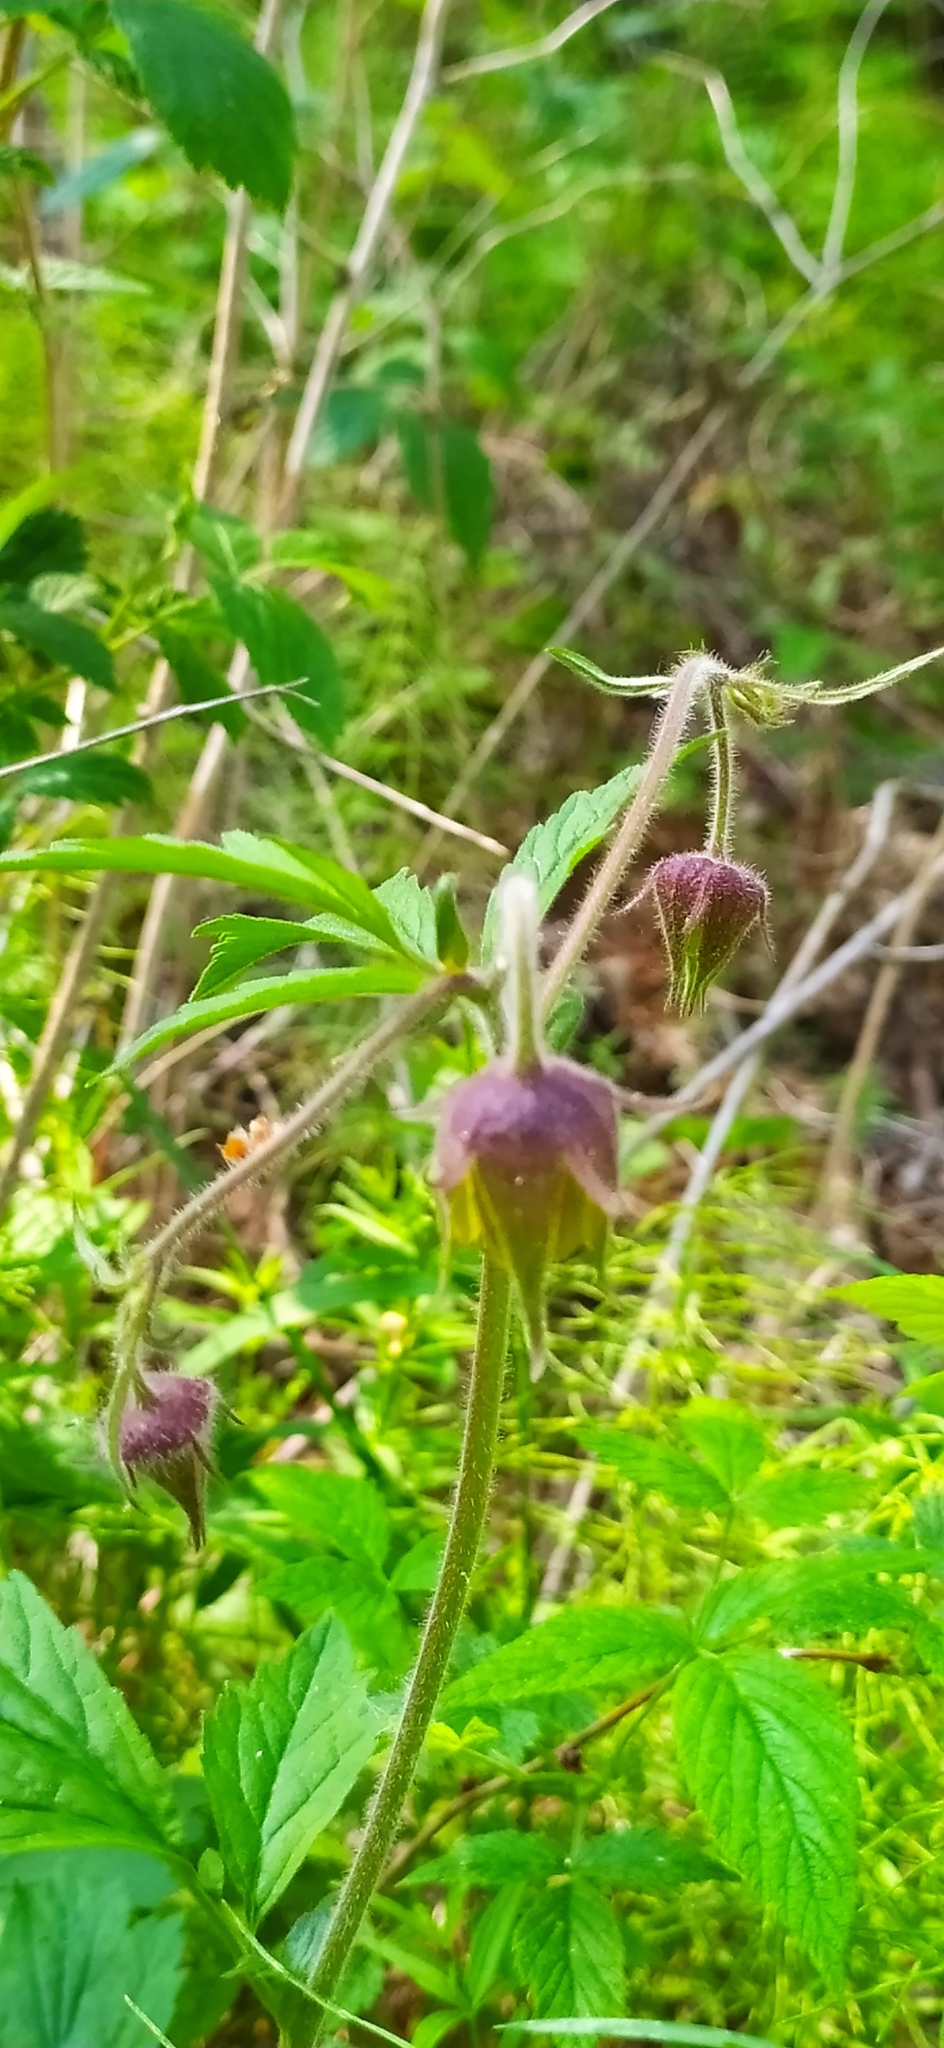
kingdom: Plantae
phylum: Tracheophyta
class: Magnoliopsida
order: Rosales
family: Rosaceae
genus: Geum
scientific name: Geum rivale
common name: Water avens
